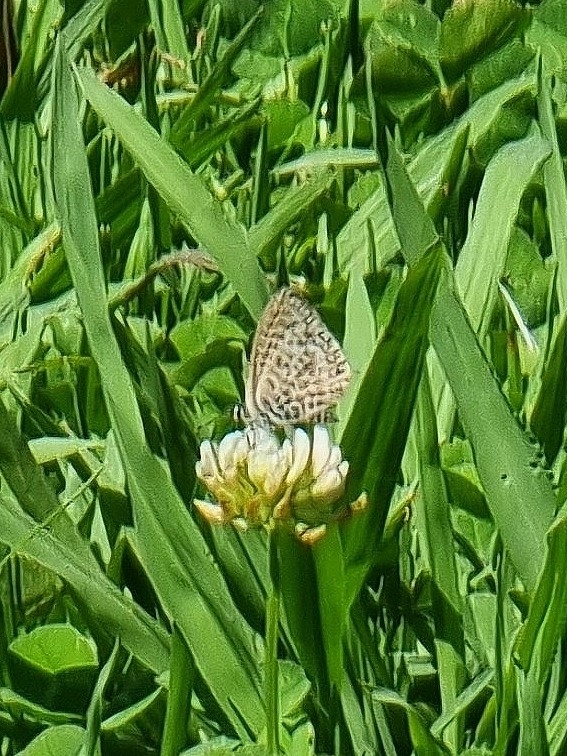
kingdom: Animalia
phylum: Arthropoda
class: Insecta
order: Lepidoptera
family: Lycaenidae
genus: Leptotes
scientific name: Leptotes pirithous
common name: Lang's short-tailed blue
